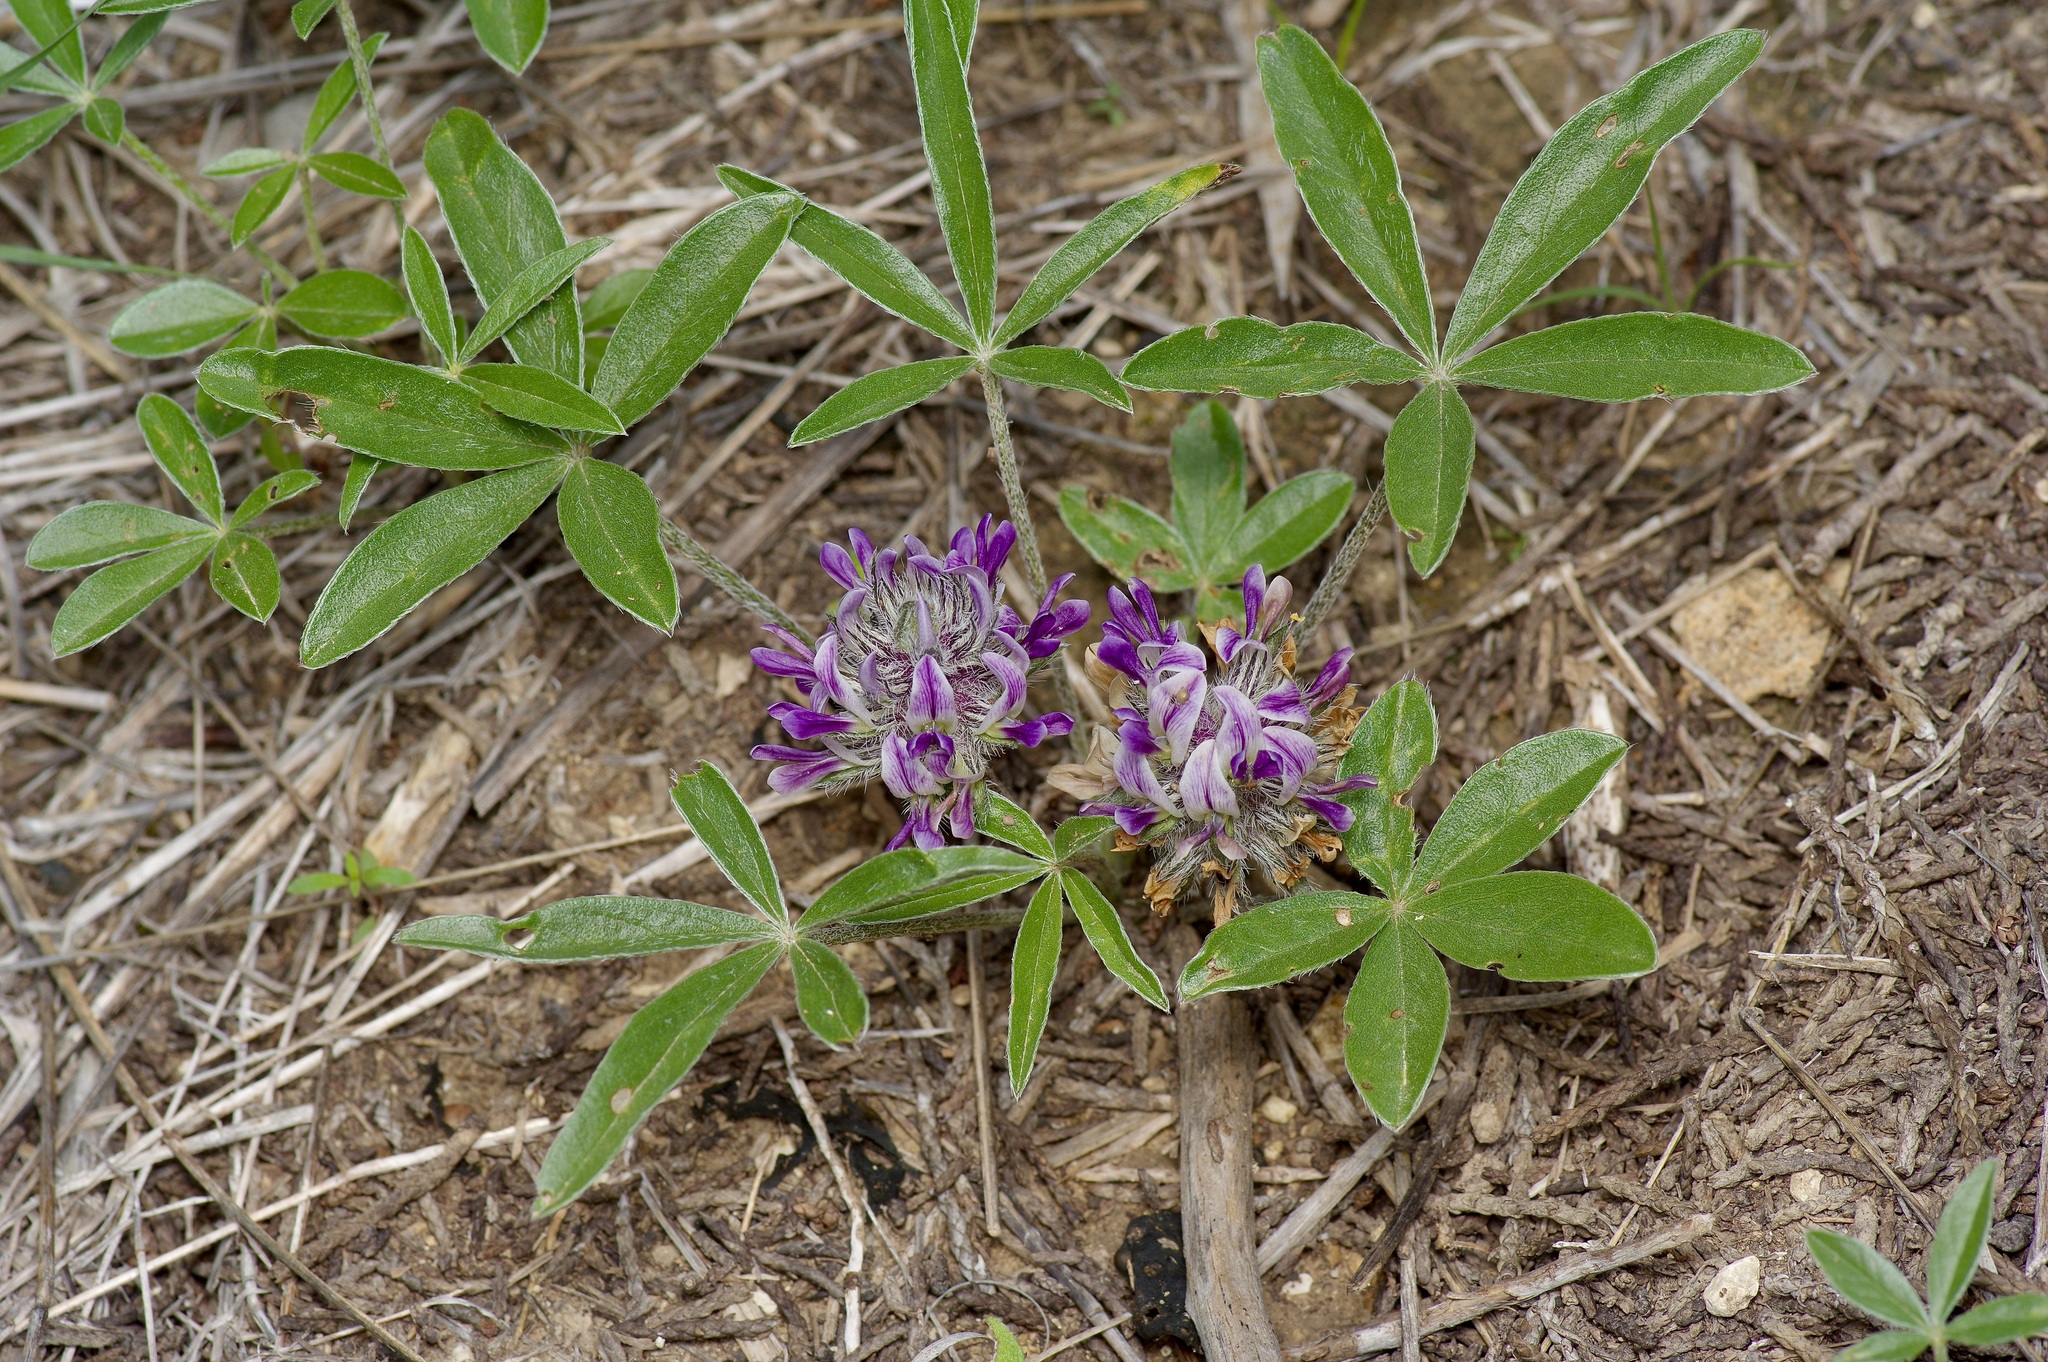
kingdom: Plantae
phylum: Tracheophyta
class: Magnoliopsida
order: Fabales
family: Fabaceae
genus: Pediomelum
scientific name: Pediomelum hypogaeum
